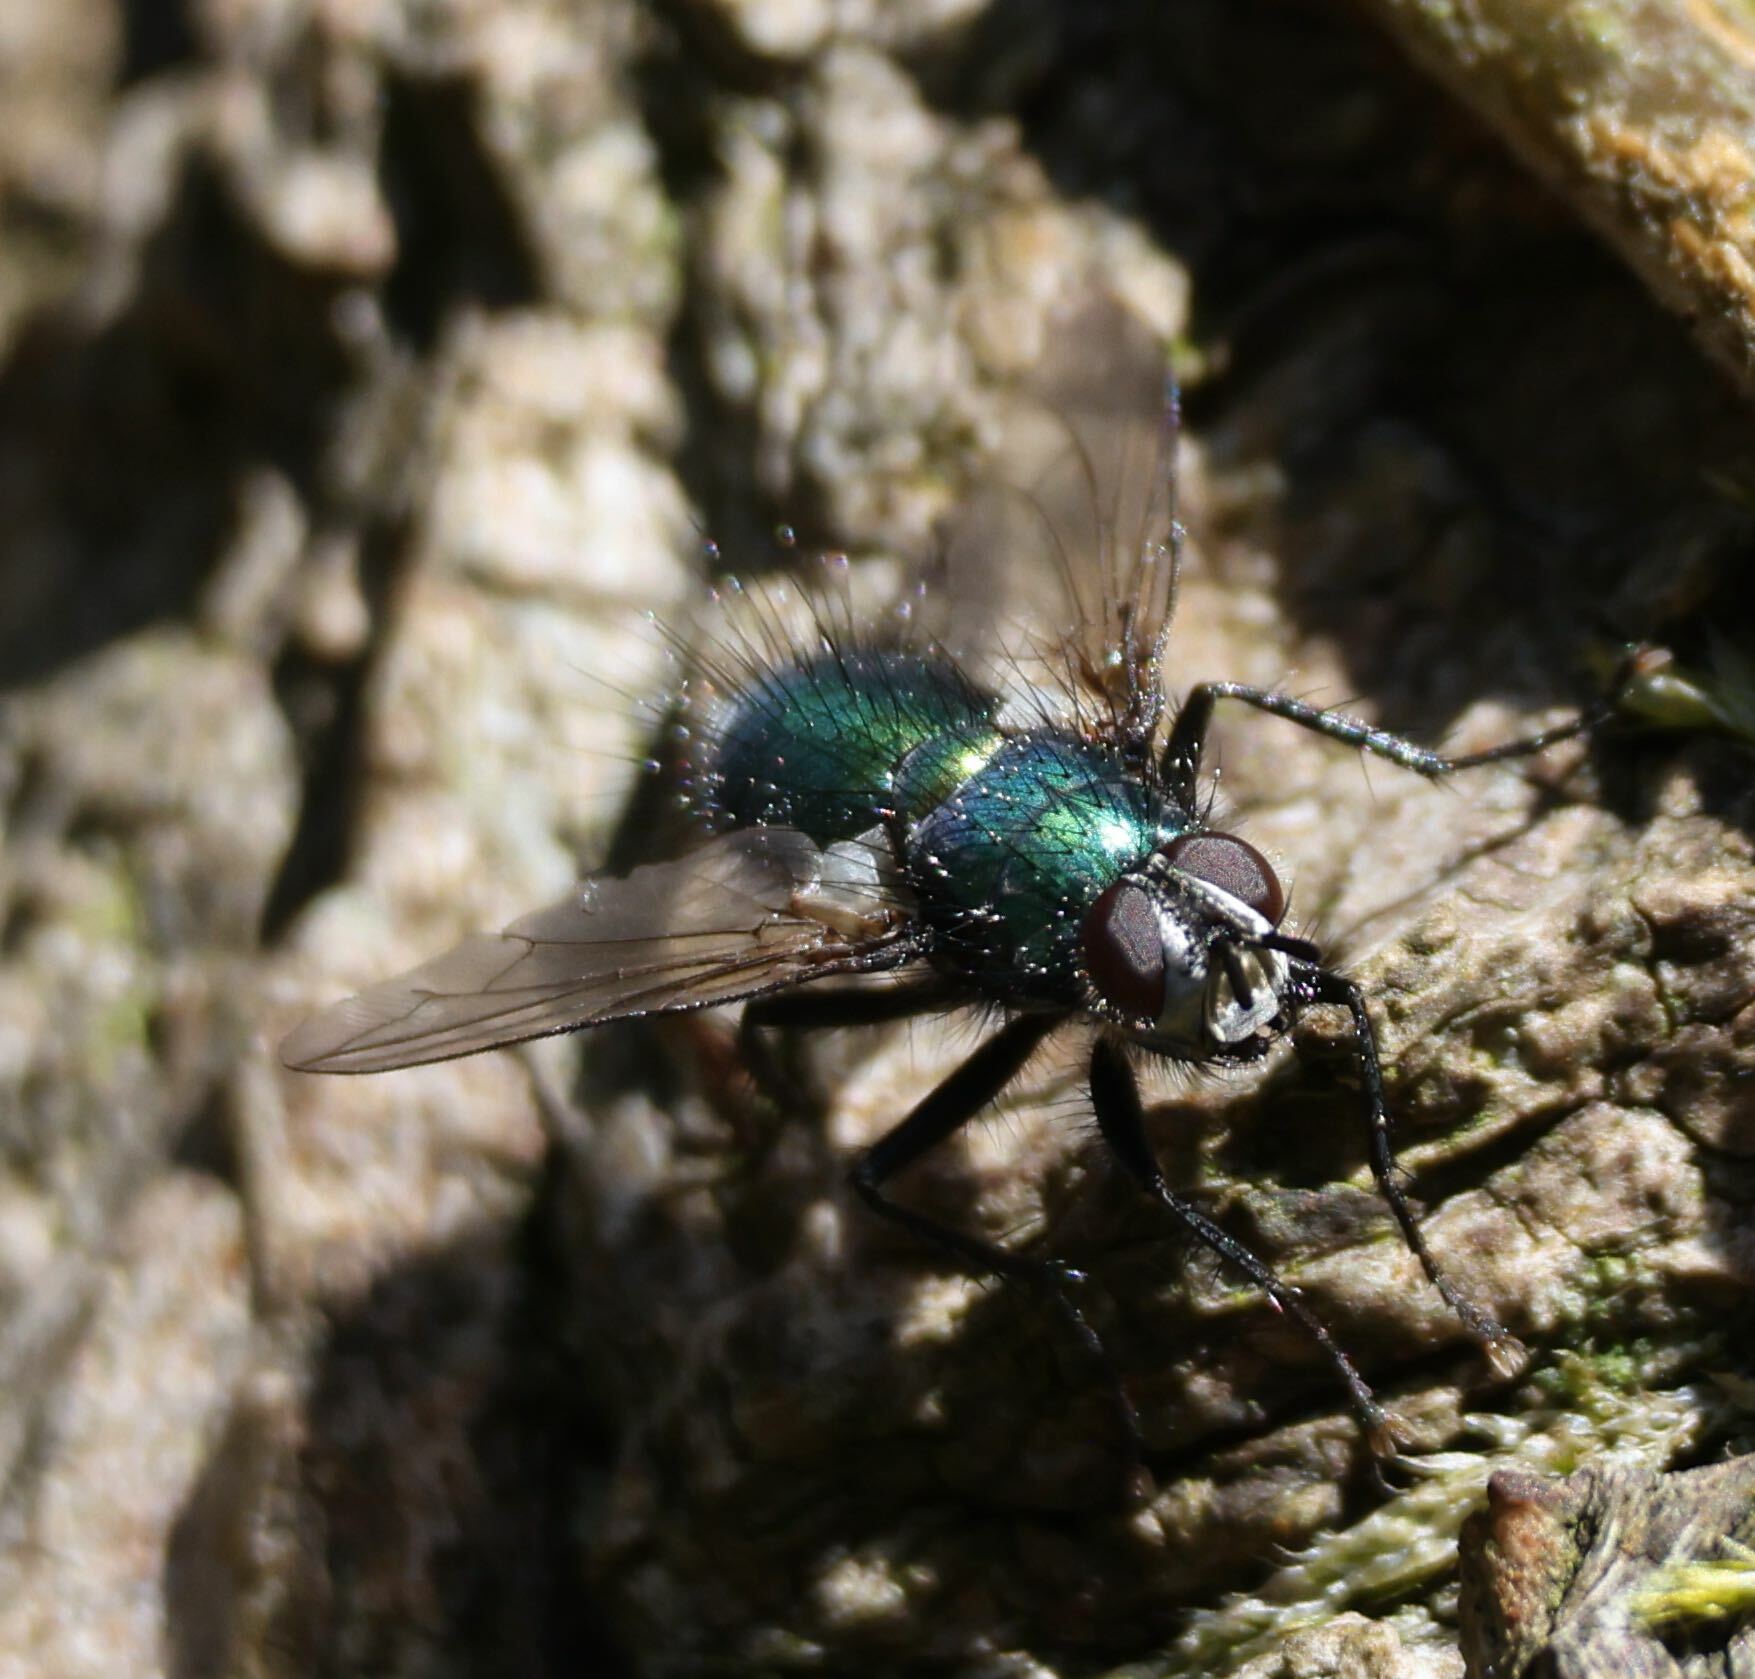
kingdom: Animalia
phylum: Arthropoda
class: Insecta
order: Diptera
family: Tachinidae
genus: Gymnocheta
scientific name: Gymnocheta viridis
